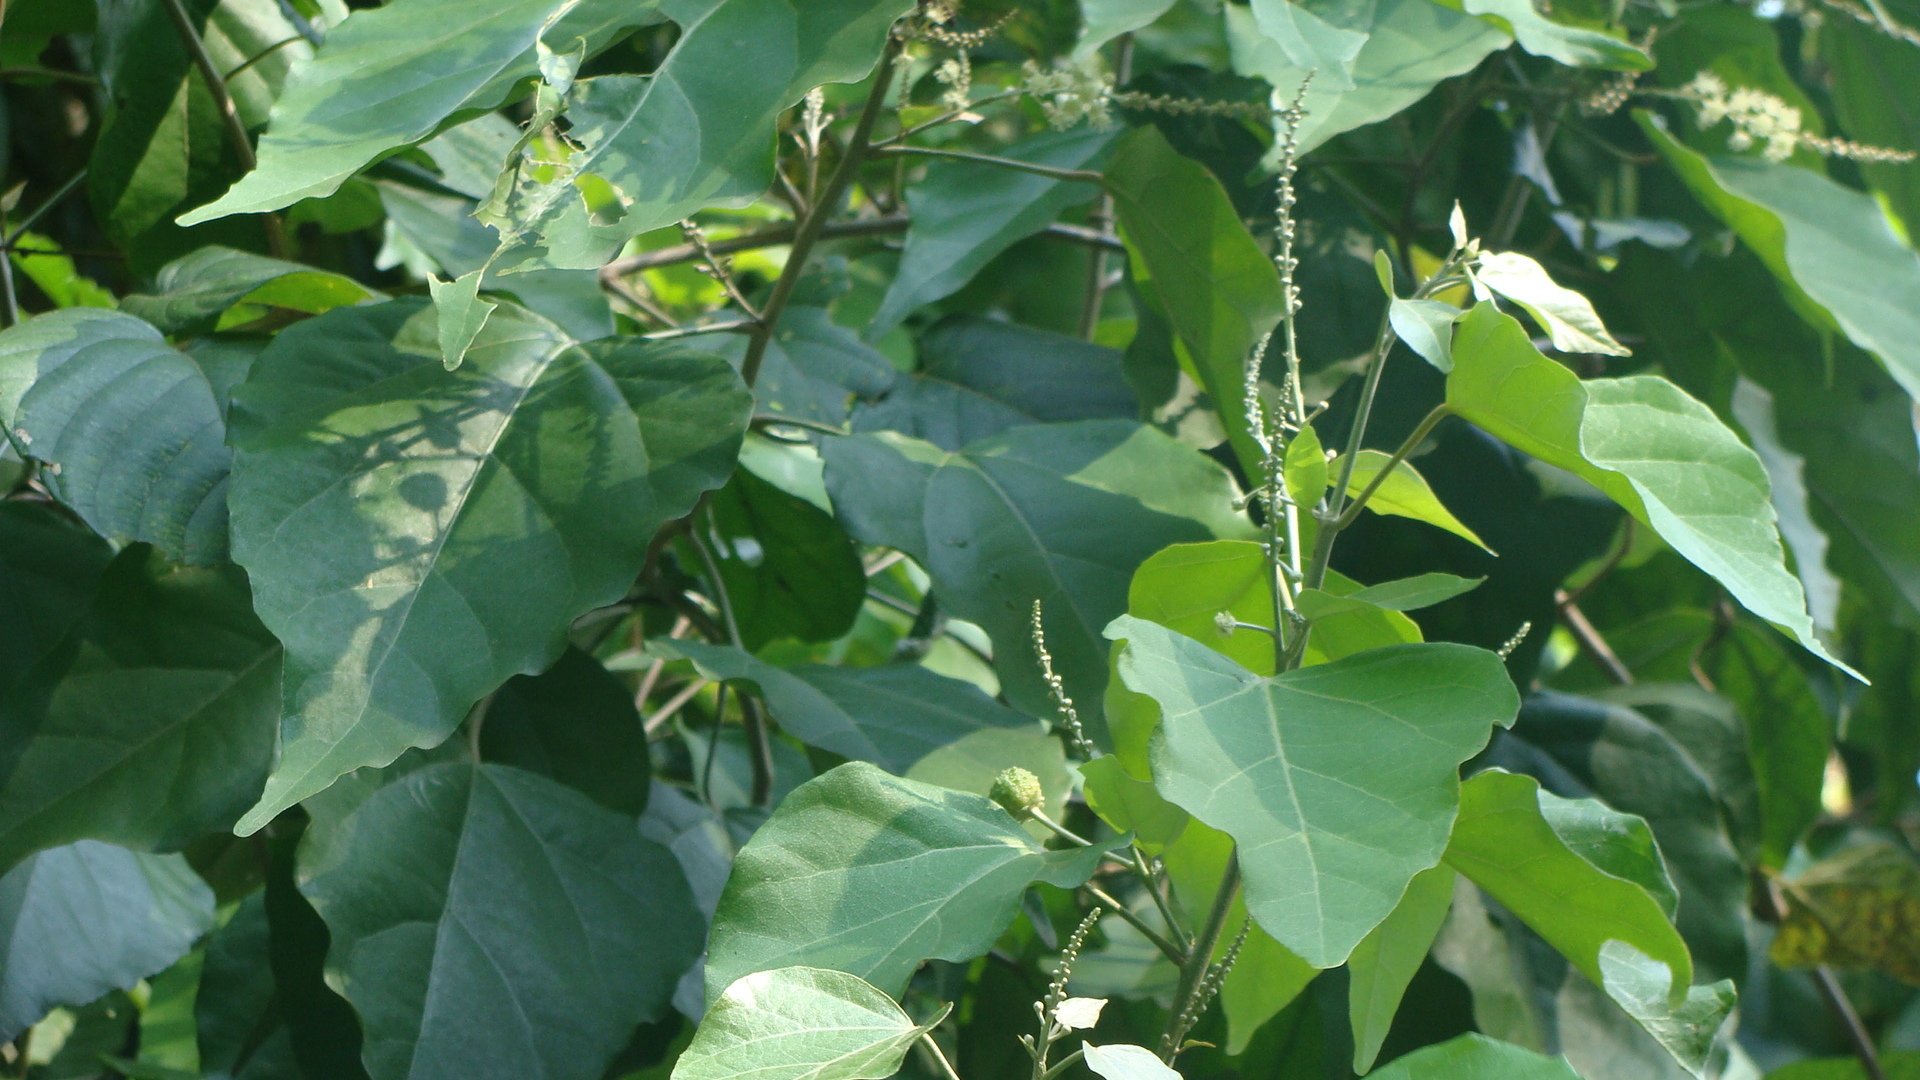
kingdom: Plantae
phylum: Tracheophyta
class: Magnoliopsida
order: Malpighiales
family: Euphorbiaceae
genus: Croton
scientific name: Croton reflexifolius
